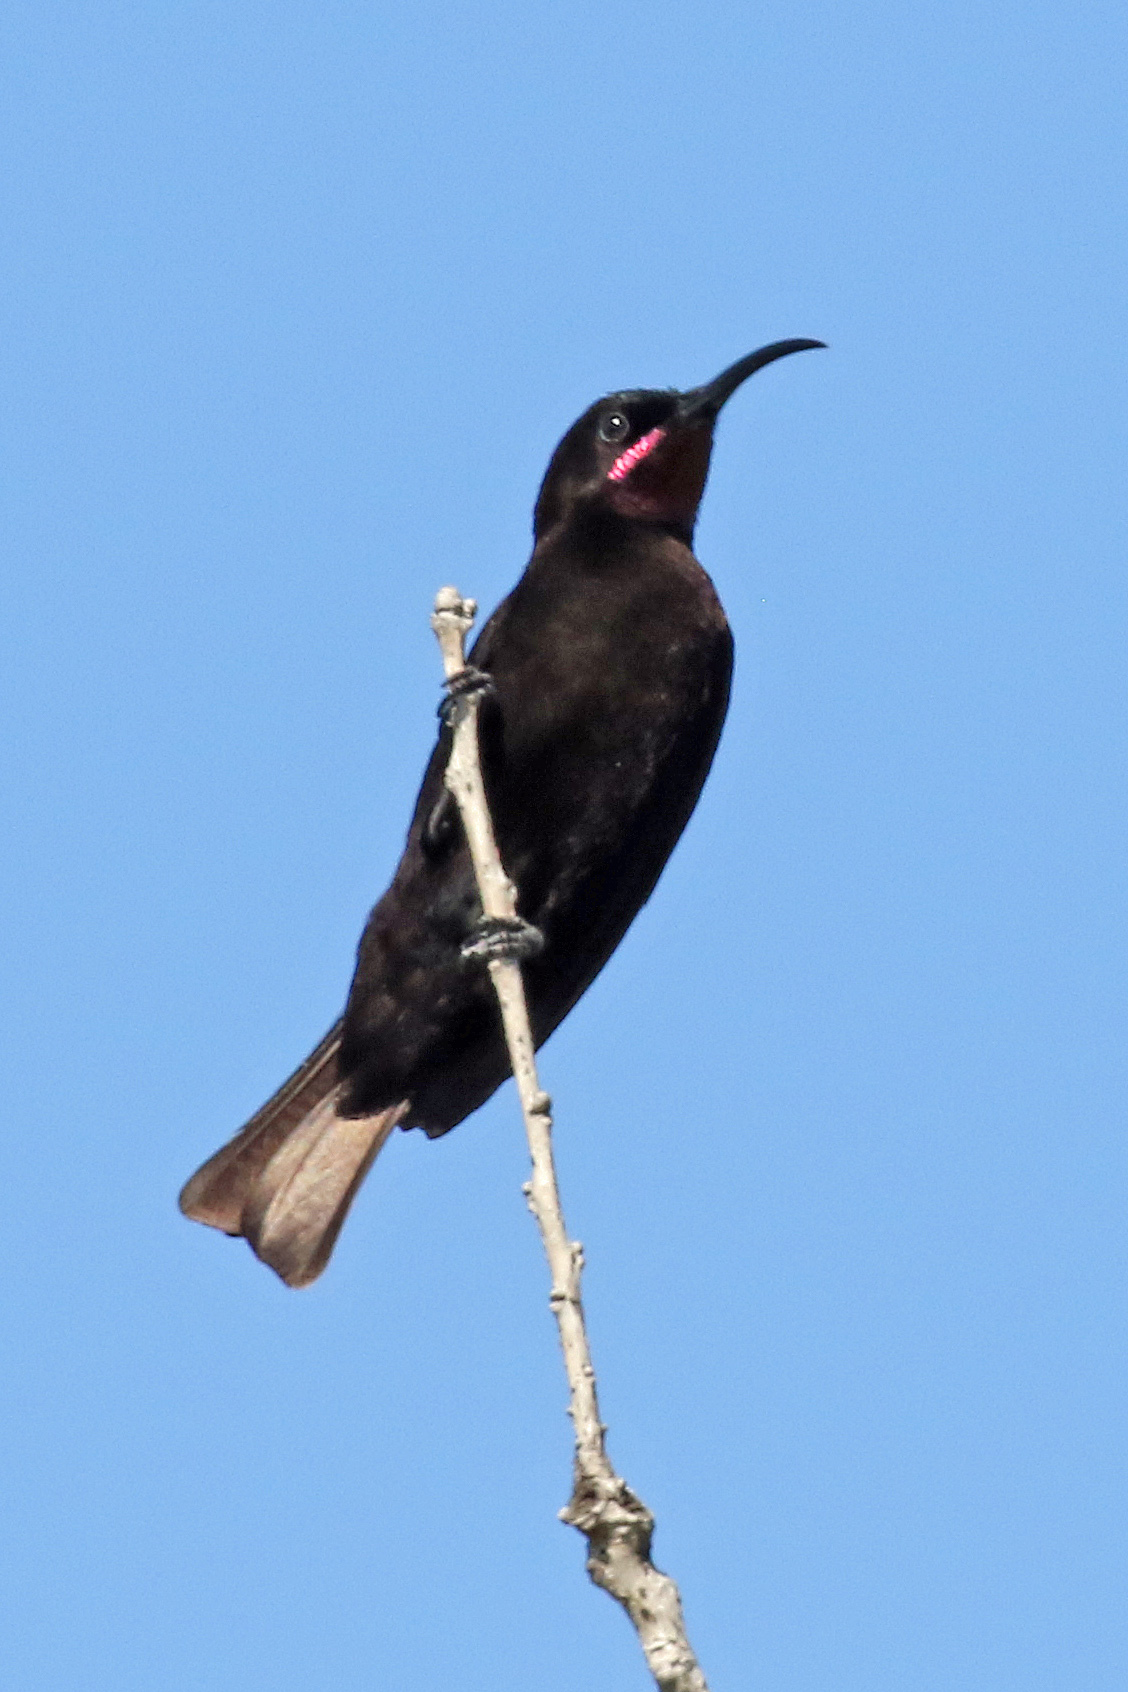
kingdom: Animalia
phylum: Chordata
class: Aves
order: Passeriformes
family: Nectariniidae
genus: Chalcomitra
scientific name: Chalcomitra amethystina
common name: Amethyst sunbird
